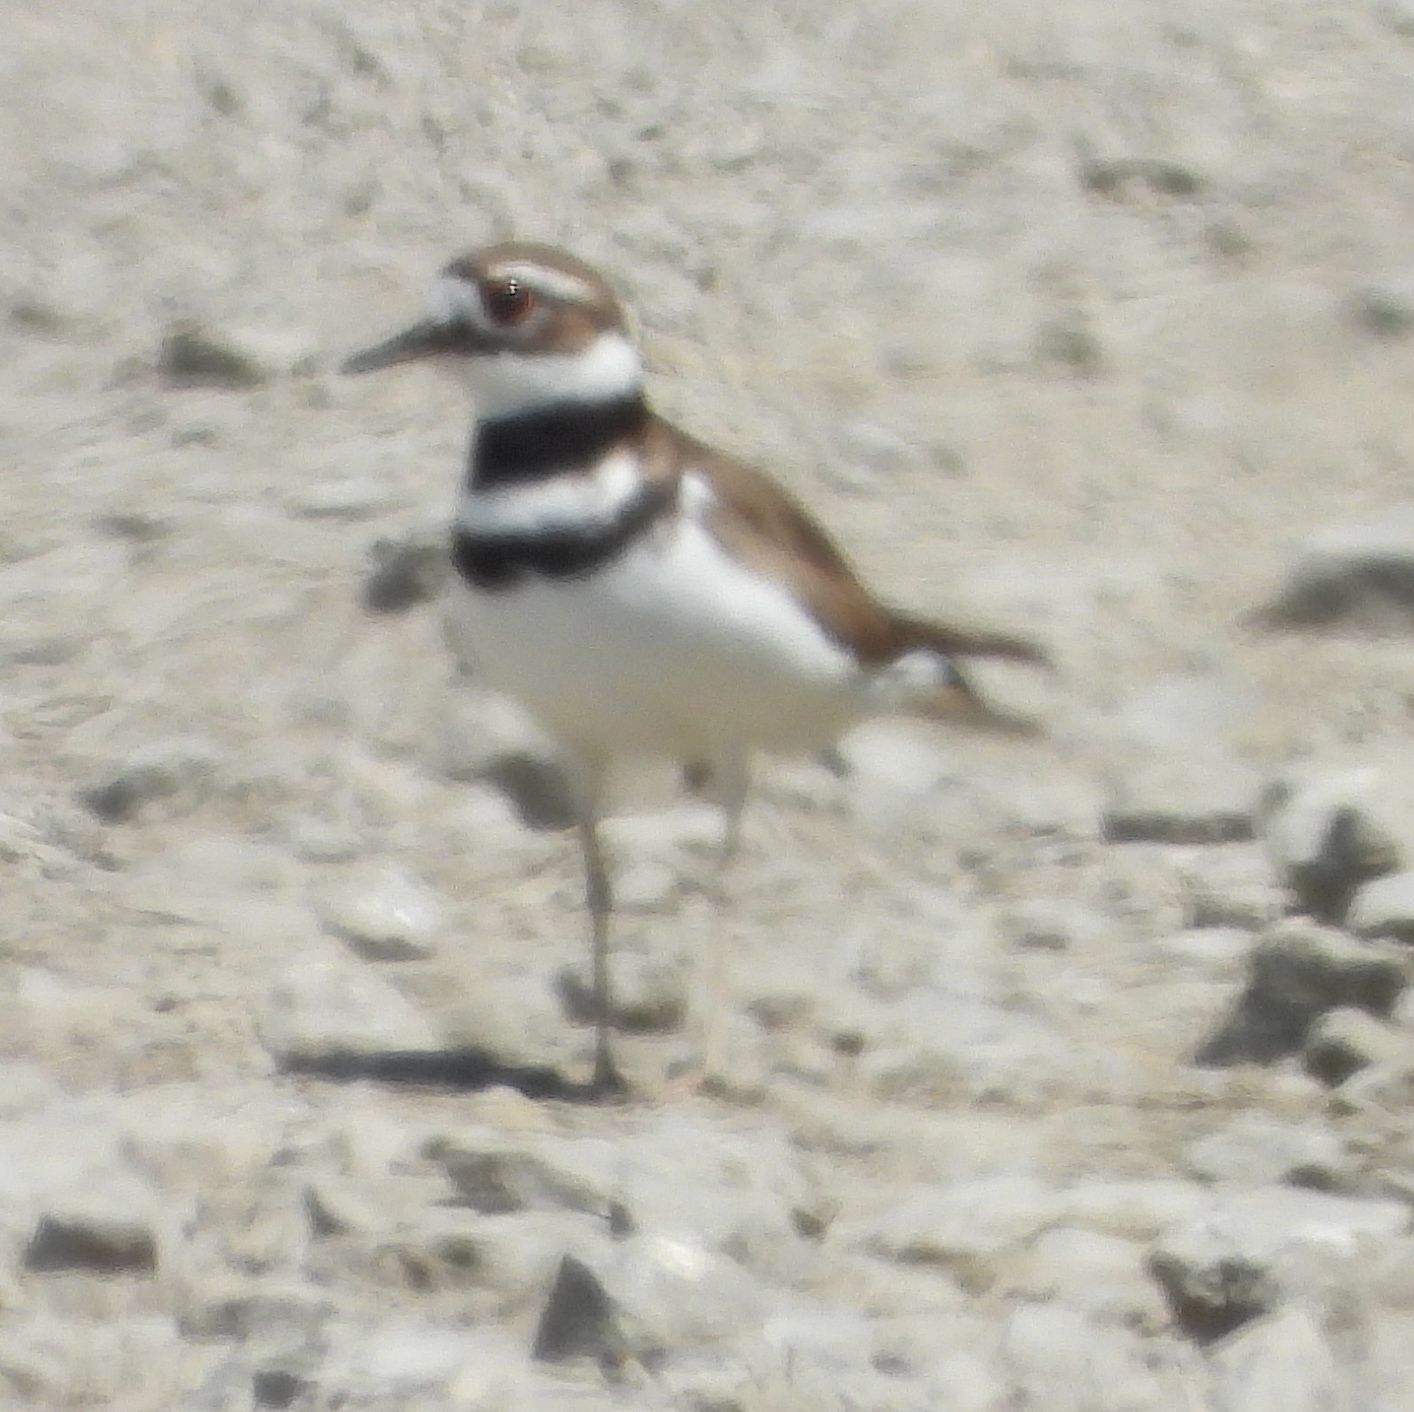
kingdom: Animalia
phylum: Chordata
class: Aves
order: Charadriiformes
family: Charadriidae
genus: Charadrius
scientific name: Charadrius vociferus
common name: Killdeer
